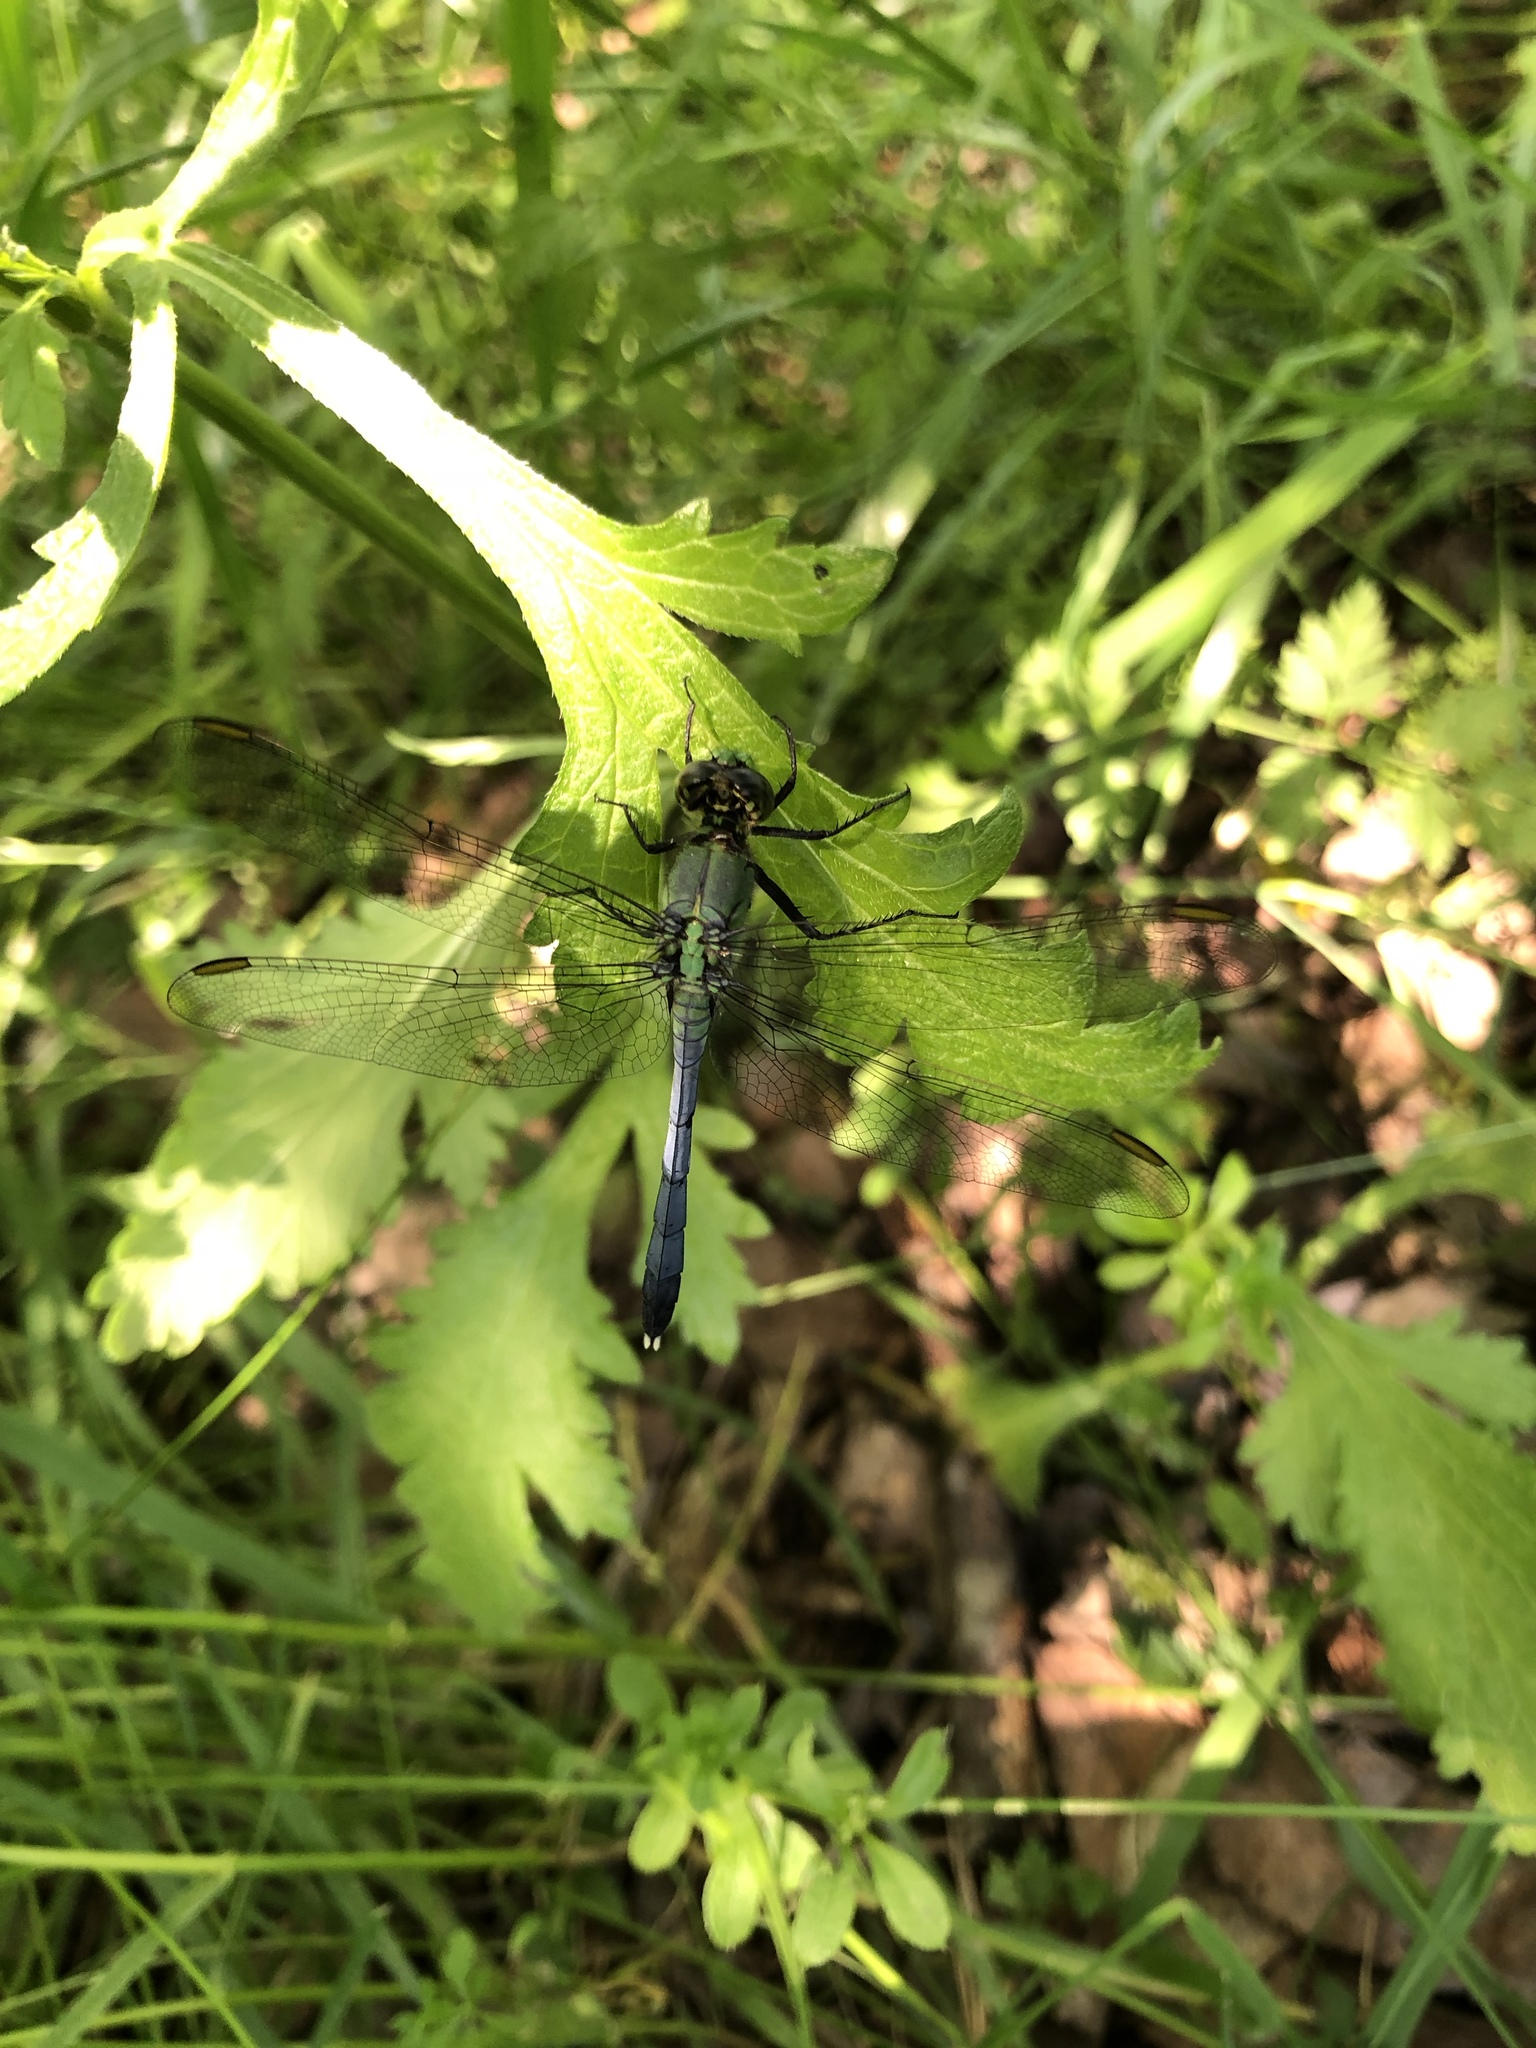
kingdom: Animalia
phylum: Arthropoda
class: Insecta
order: Odonata
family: Libellulidae
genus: Erythemis
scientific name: Erythemis simplicicollis
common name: Eastern pondhawk
